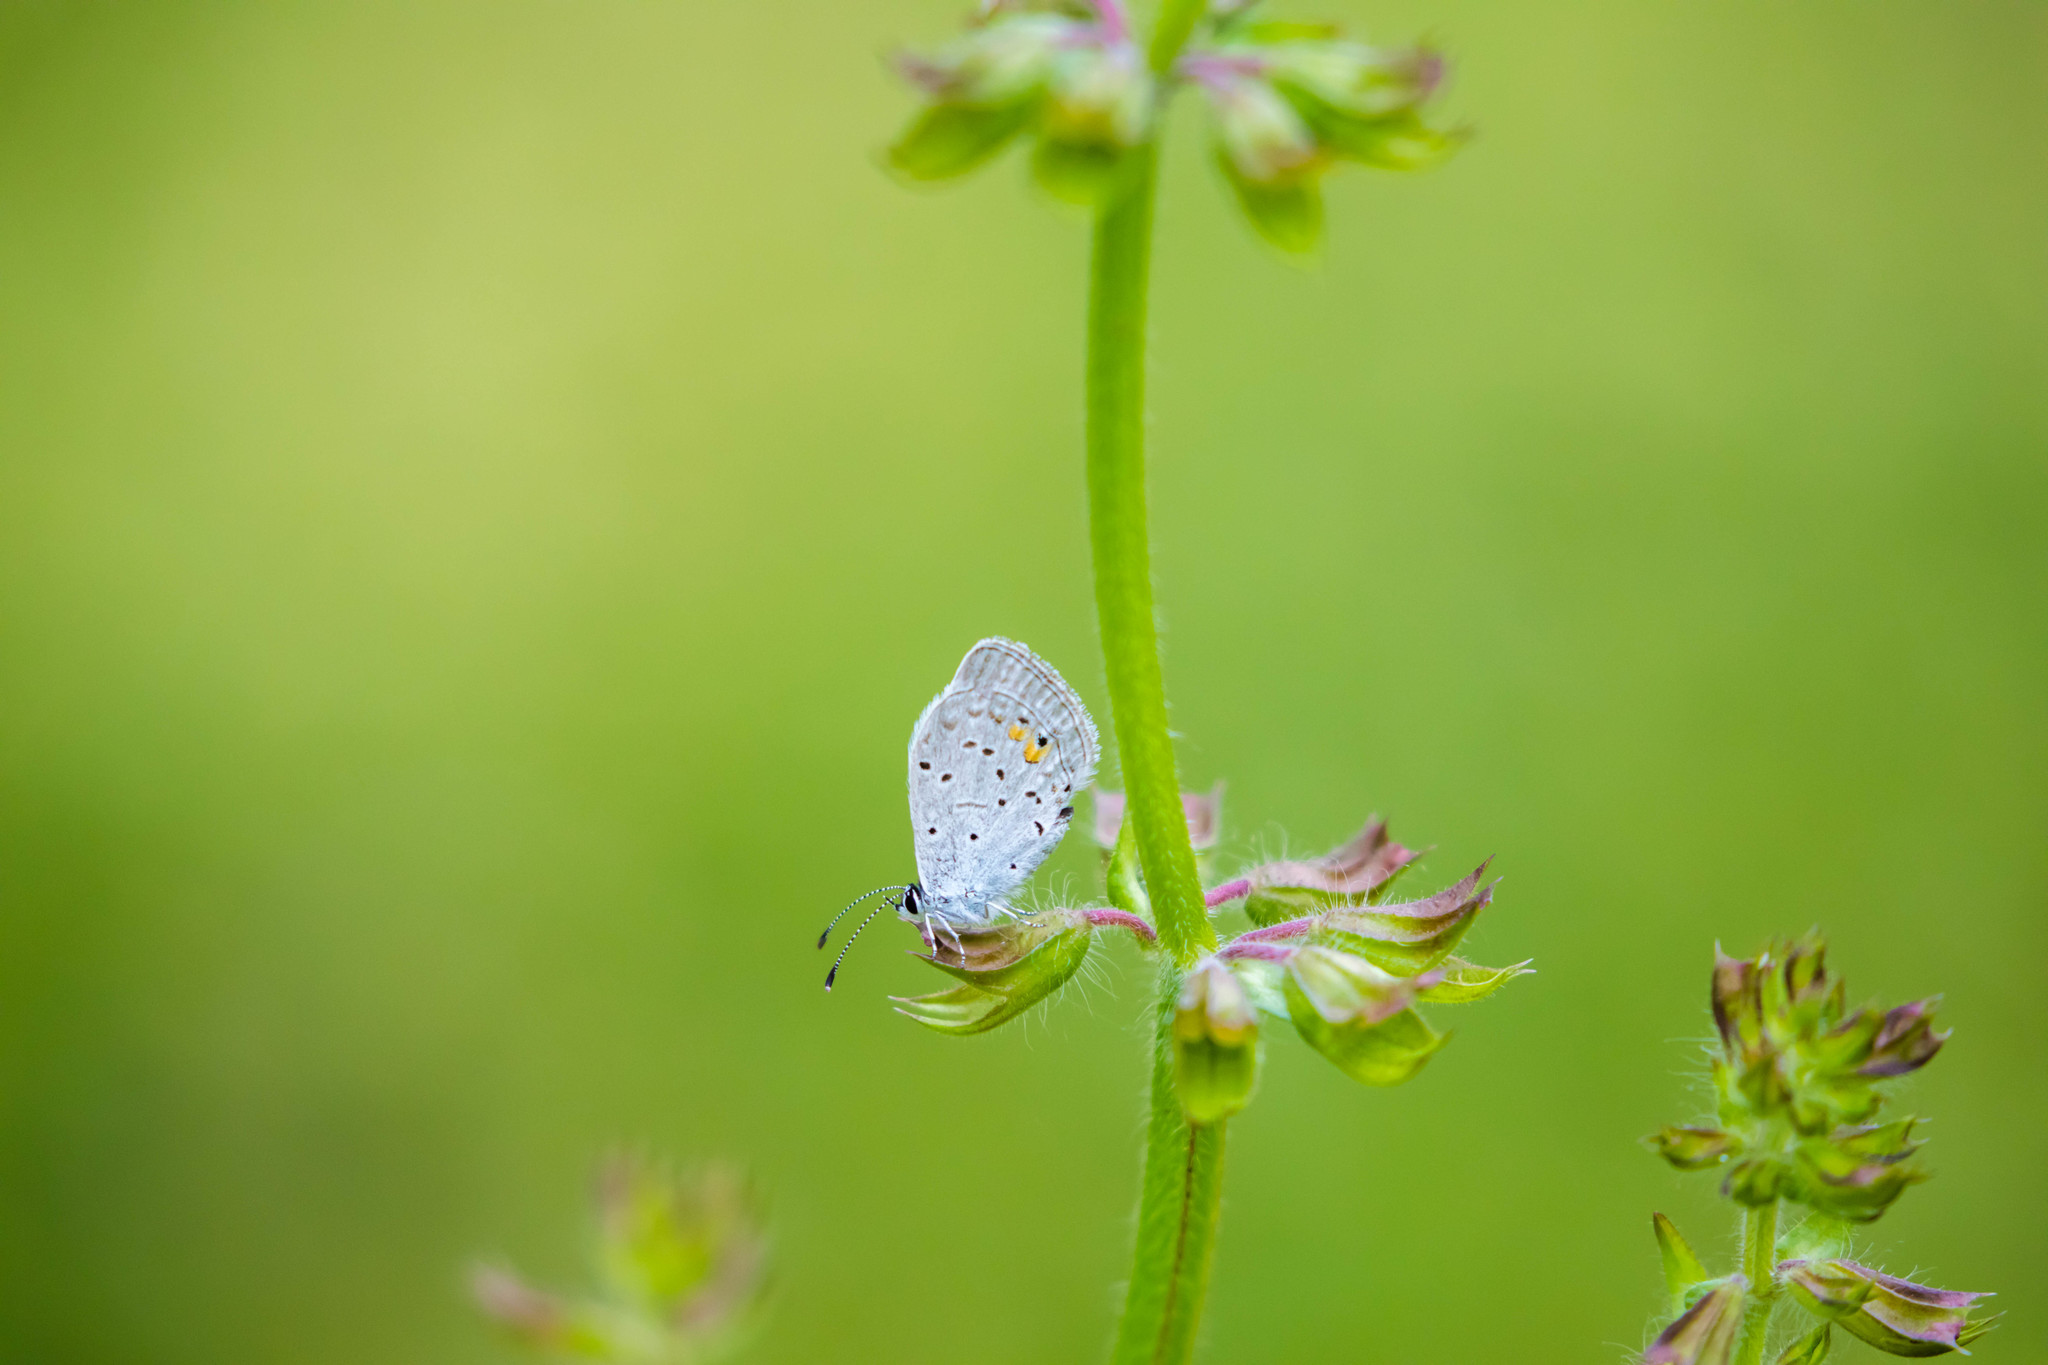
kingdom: Animalia
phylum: Arthropoda
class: Insecta
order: Lepidoptera
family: Lycaenidae
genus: Elkalyce
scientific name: Elkalyce comyntas
